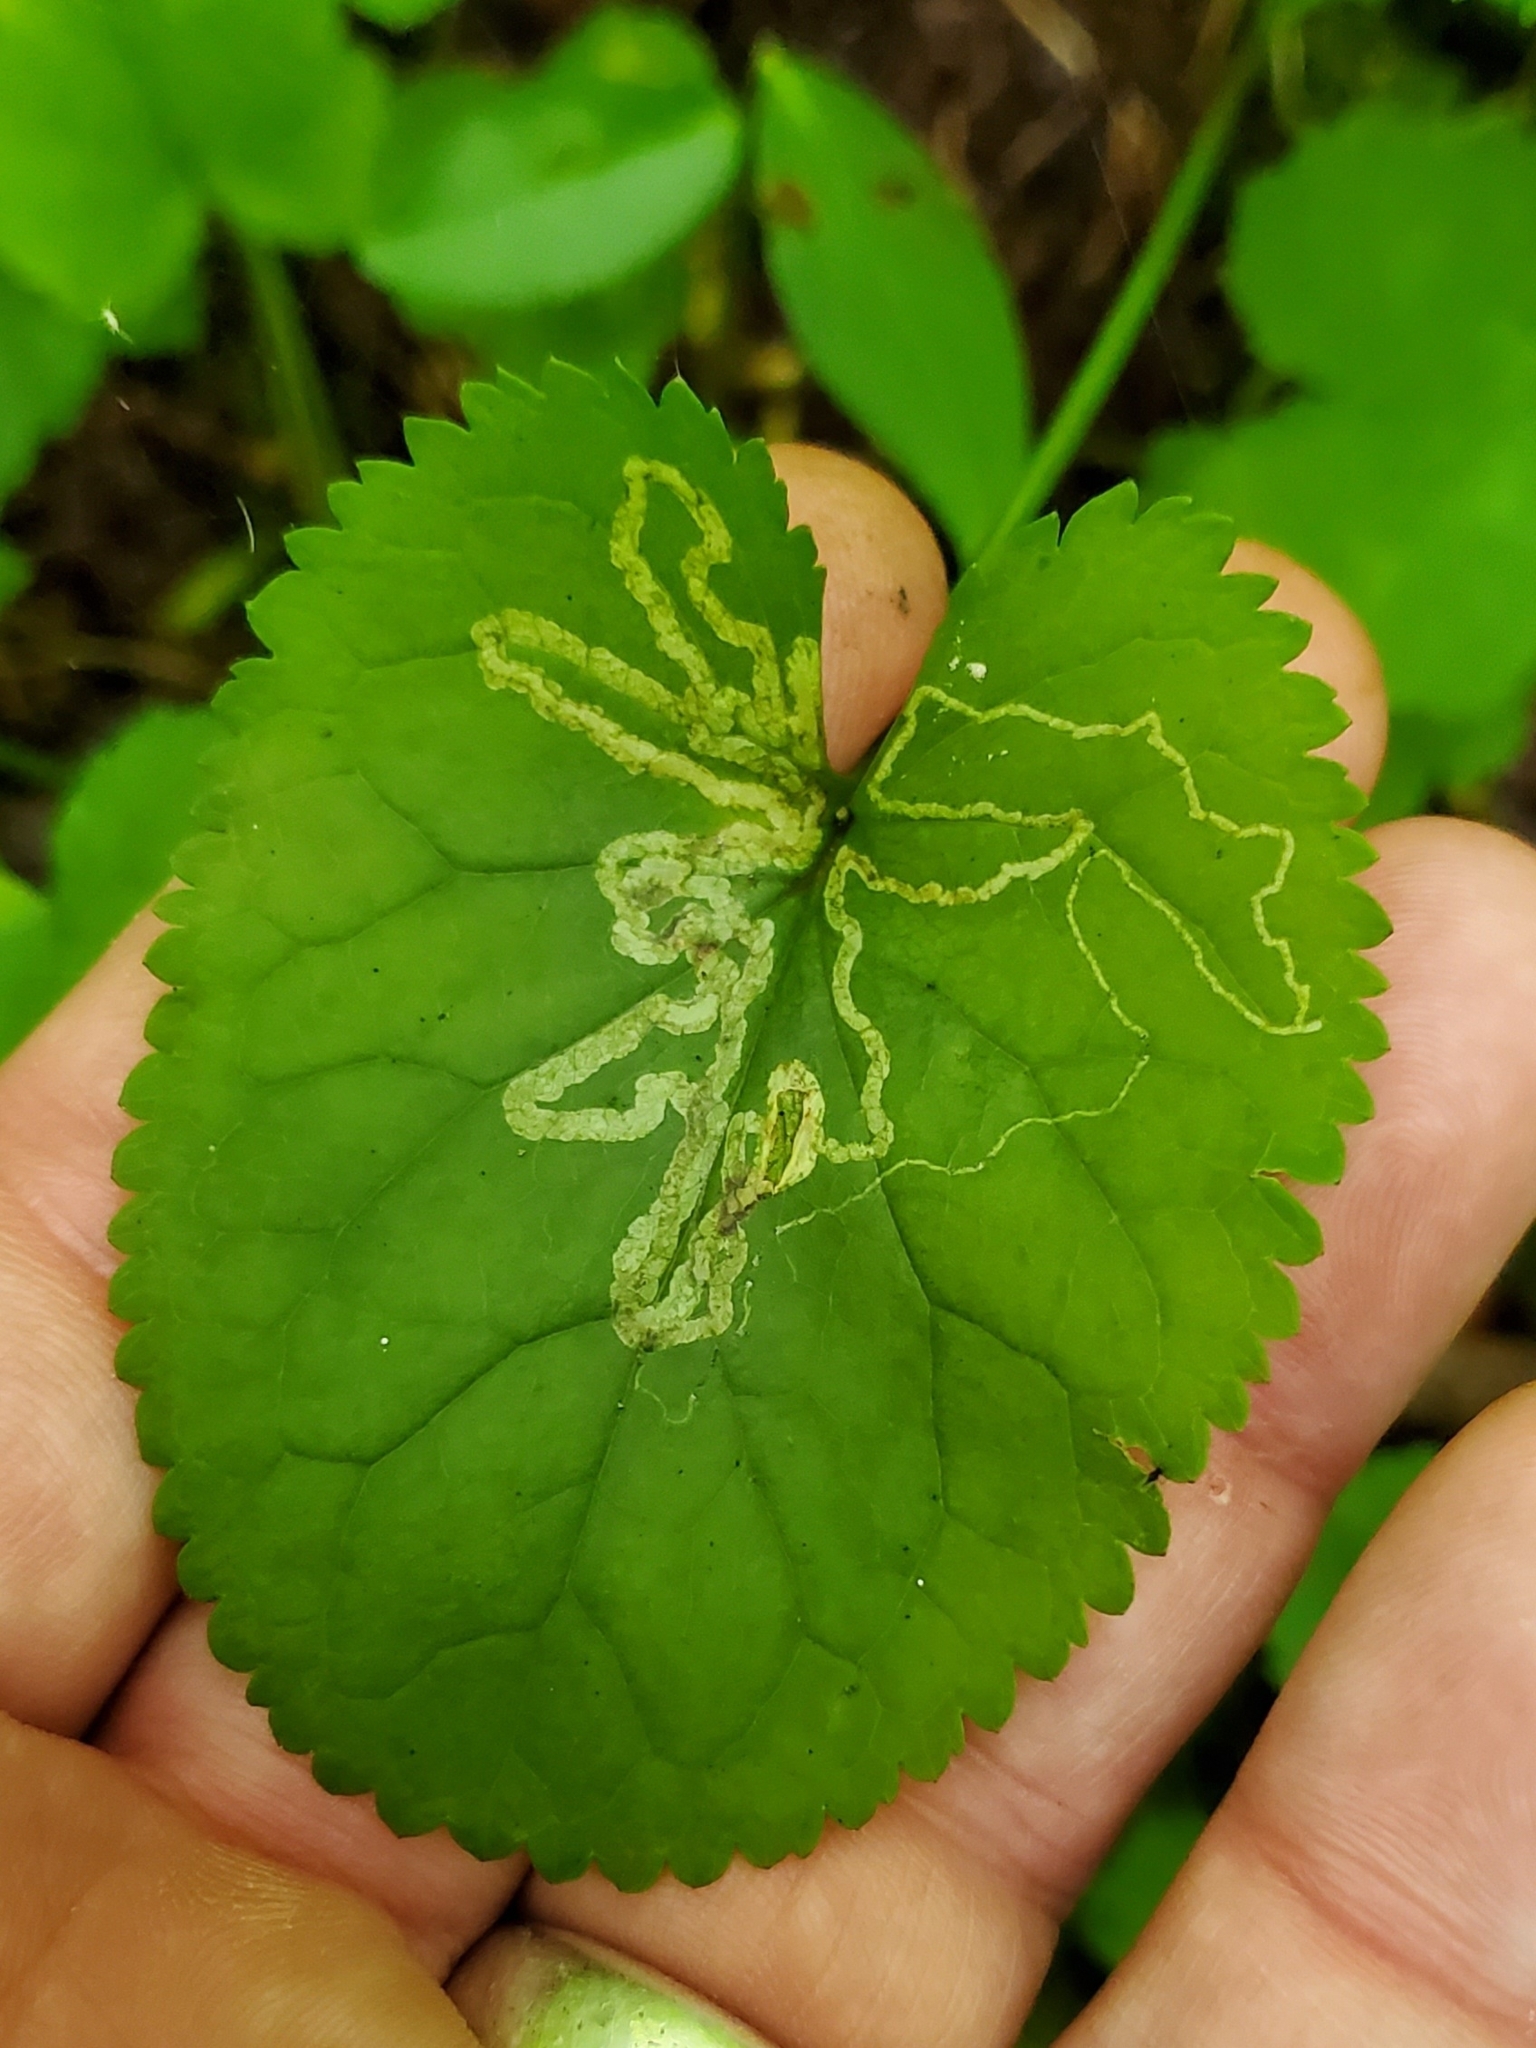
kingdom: Animalia
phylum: Arthropoda
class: Insecta
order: Lepidoptera
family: Gracillariidae
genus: Phyllocnistis
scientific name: Phyllocnistis insignis
